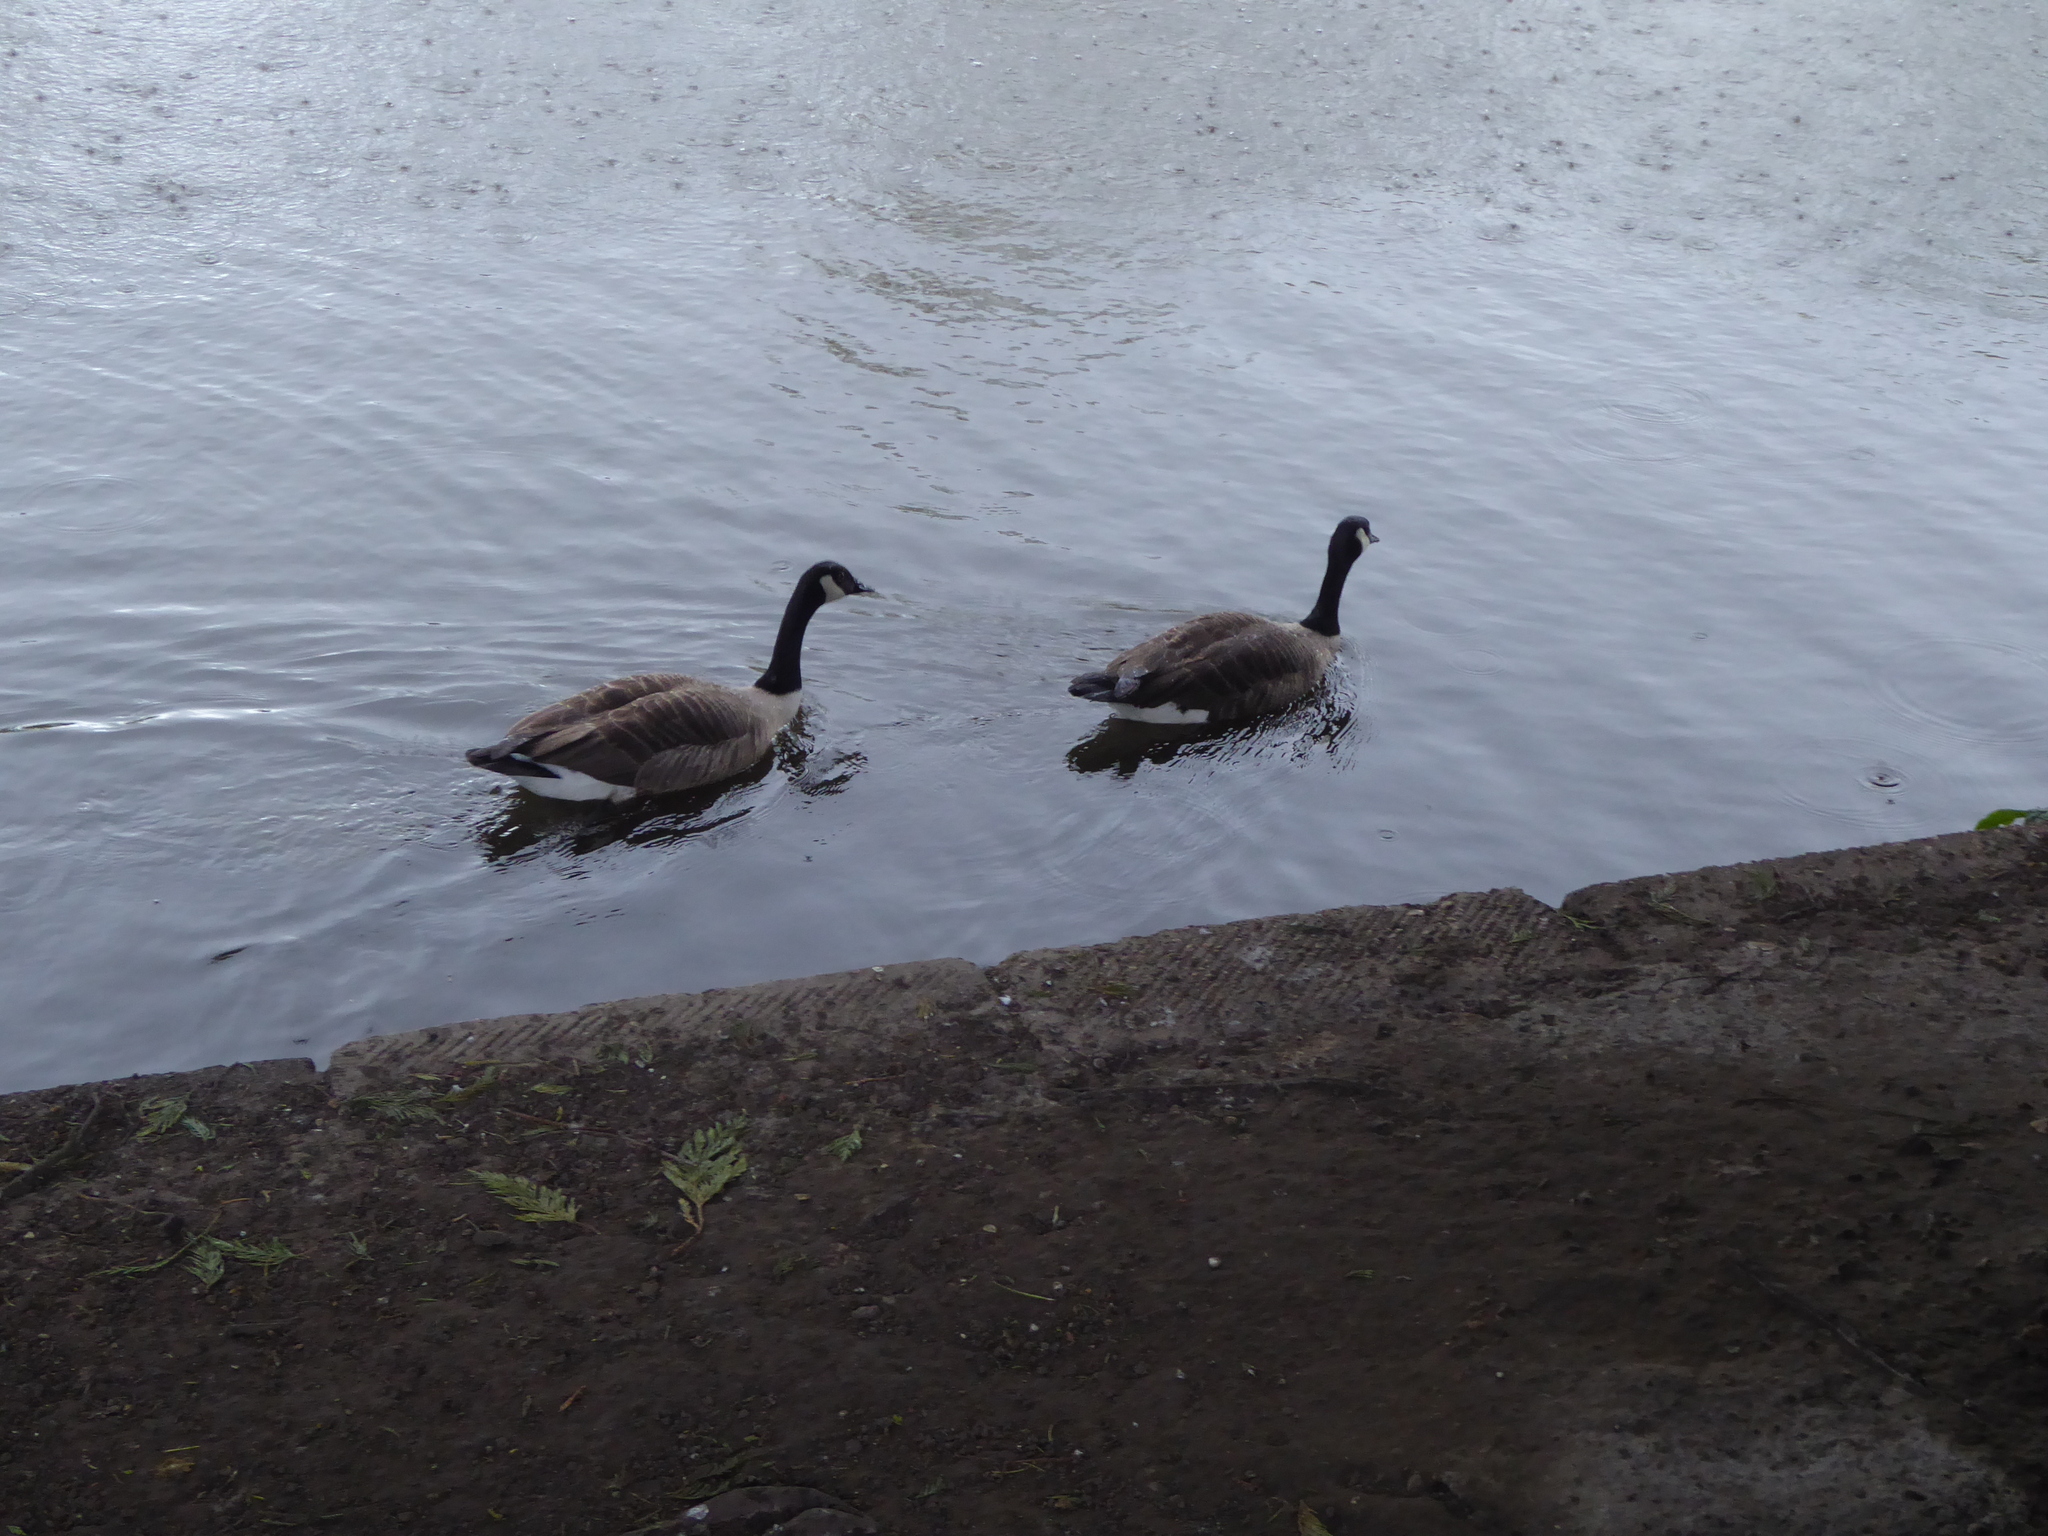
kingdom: Animalia
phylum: Chordata
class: Aves
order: Anseriformes
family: Anatidae
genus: Branta
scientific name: Branta canadensis
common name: Canada goose
